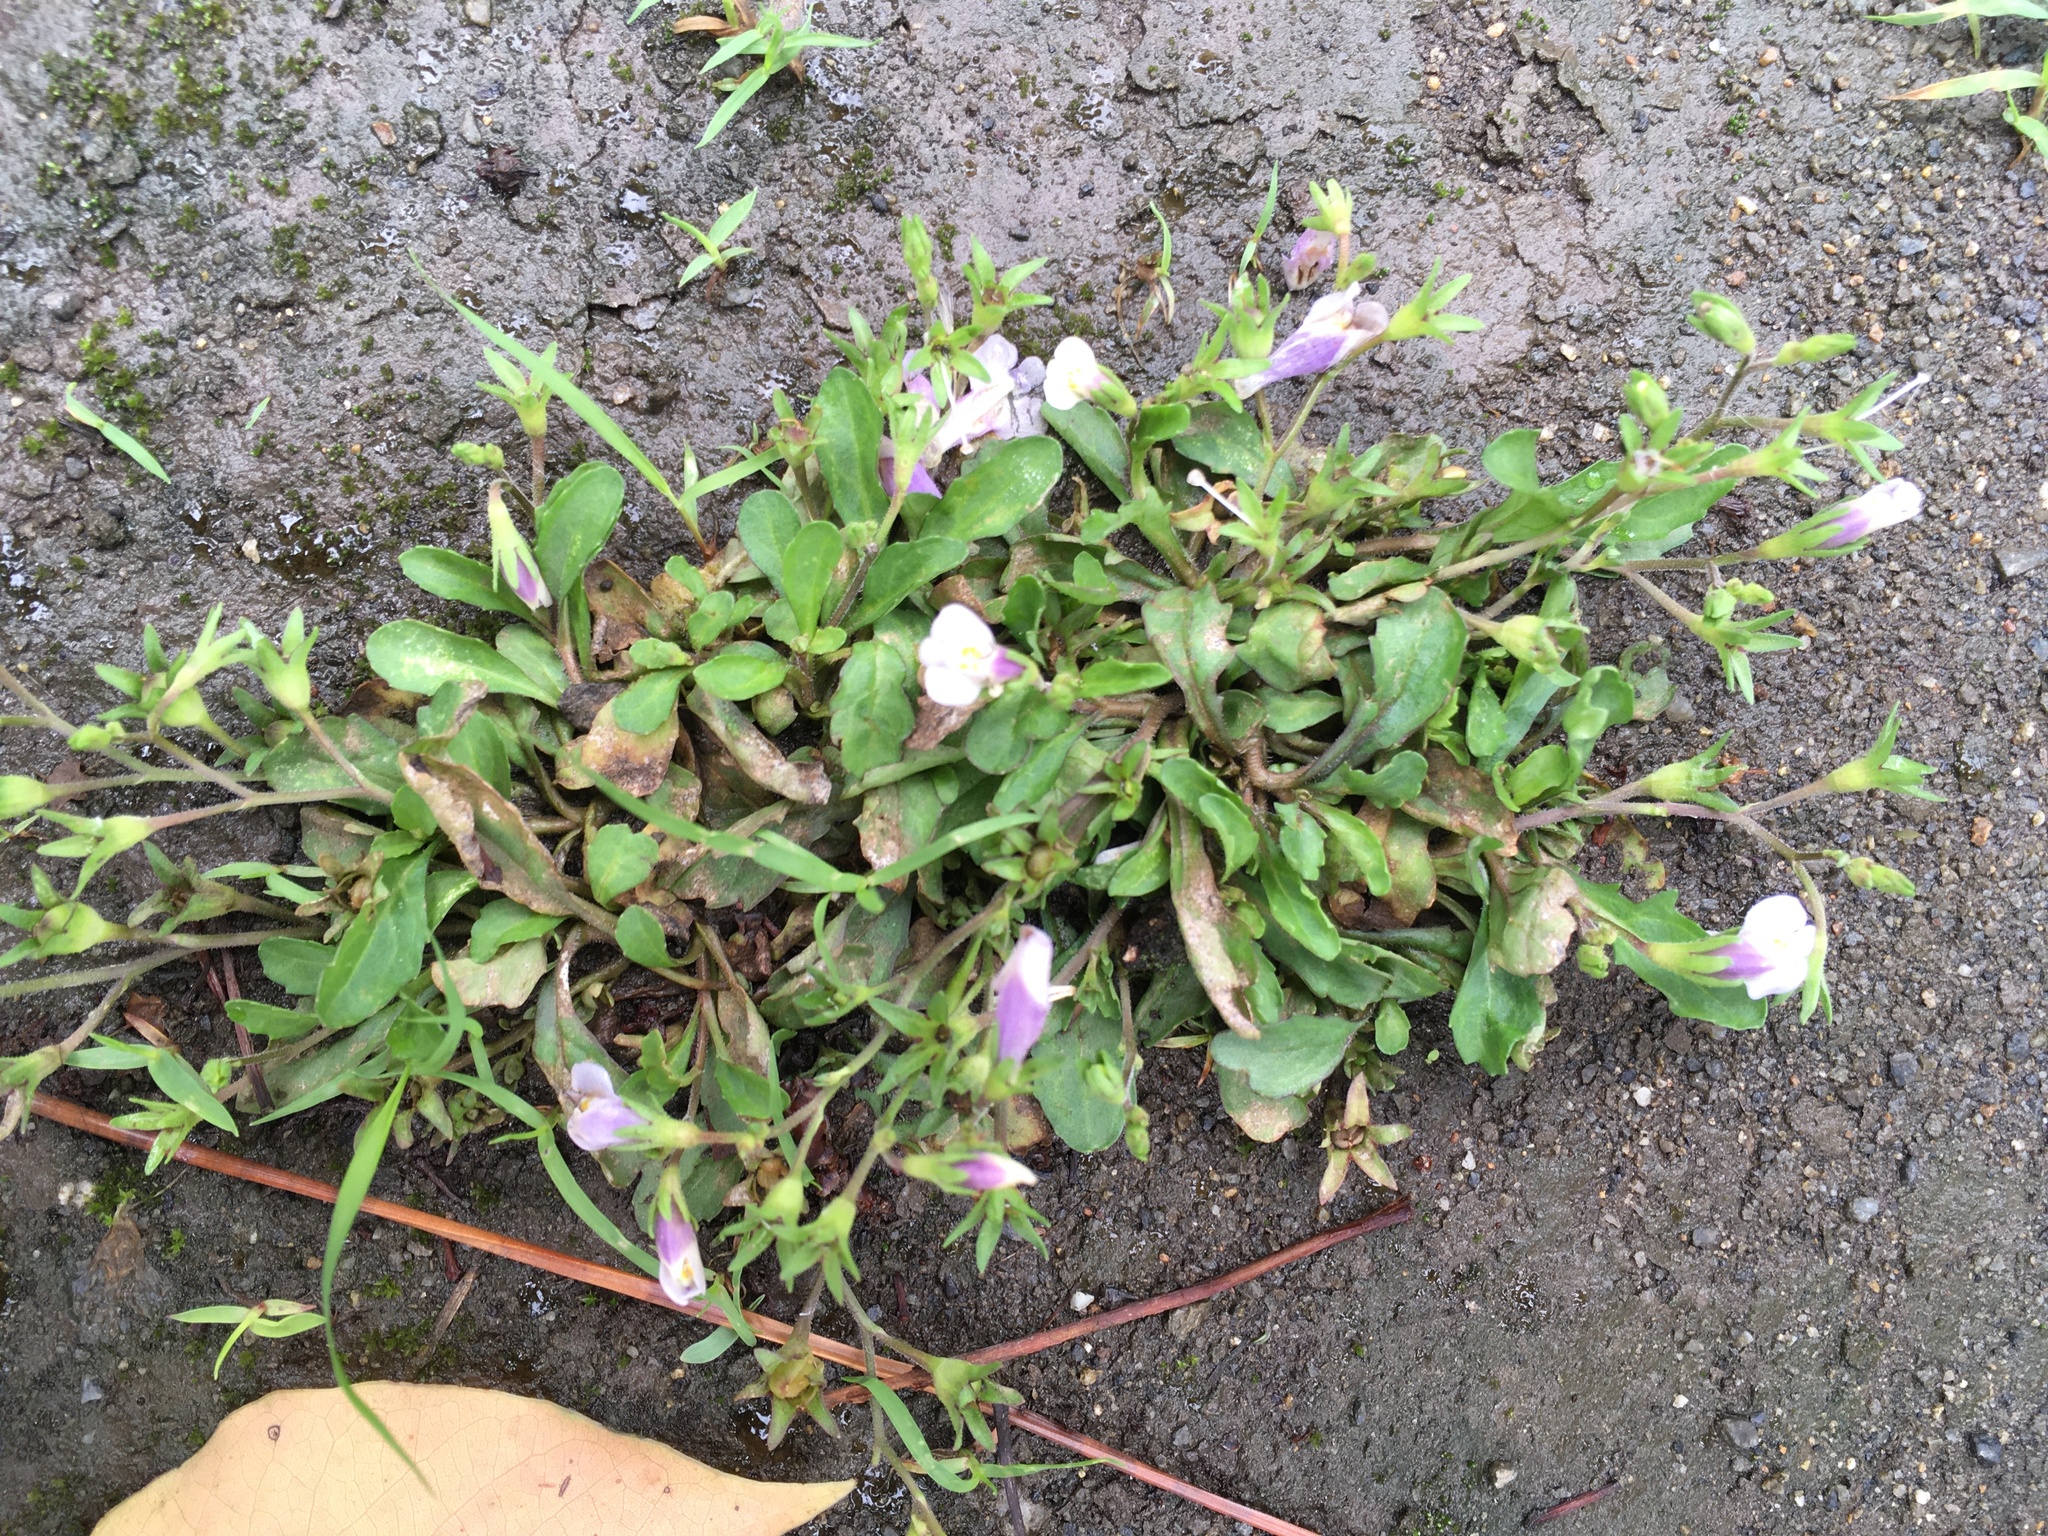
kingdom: Plantae
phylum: Tracheophyta
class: Magnoliopsida
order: Lamiales
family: Mazaceae
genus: Mazus
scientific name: Mazus pumilus
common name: Japanese mazus
